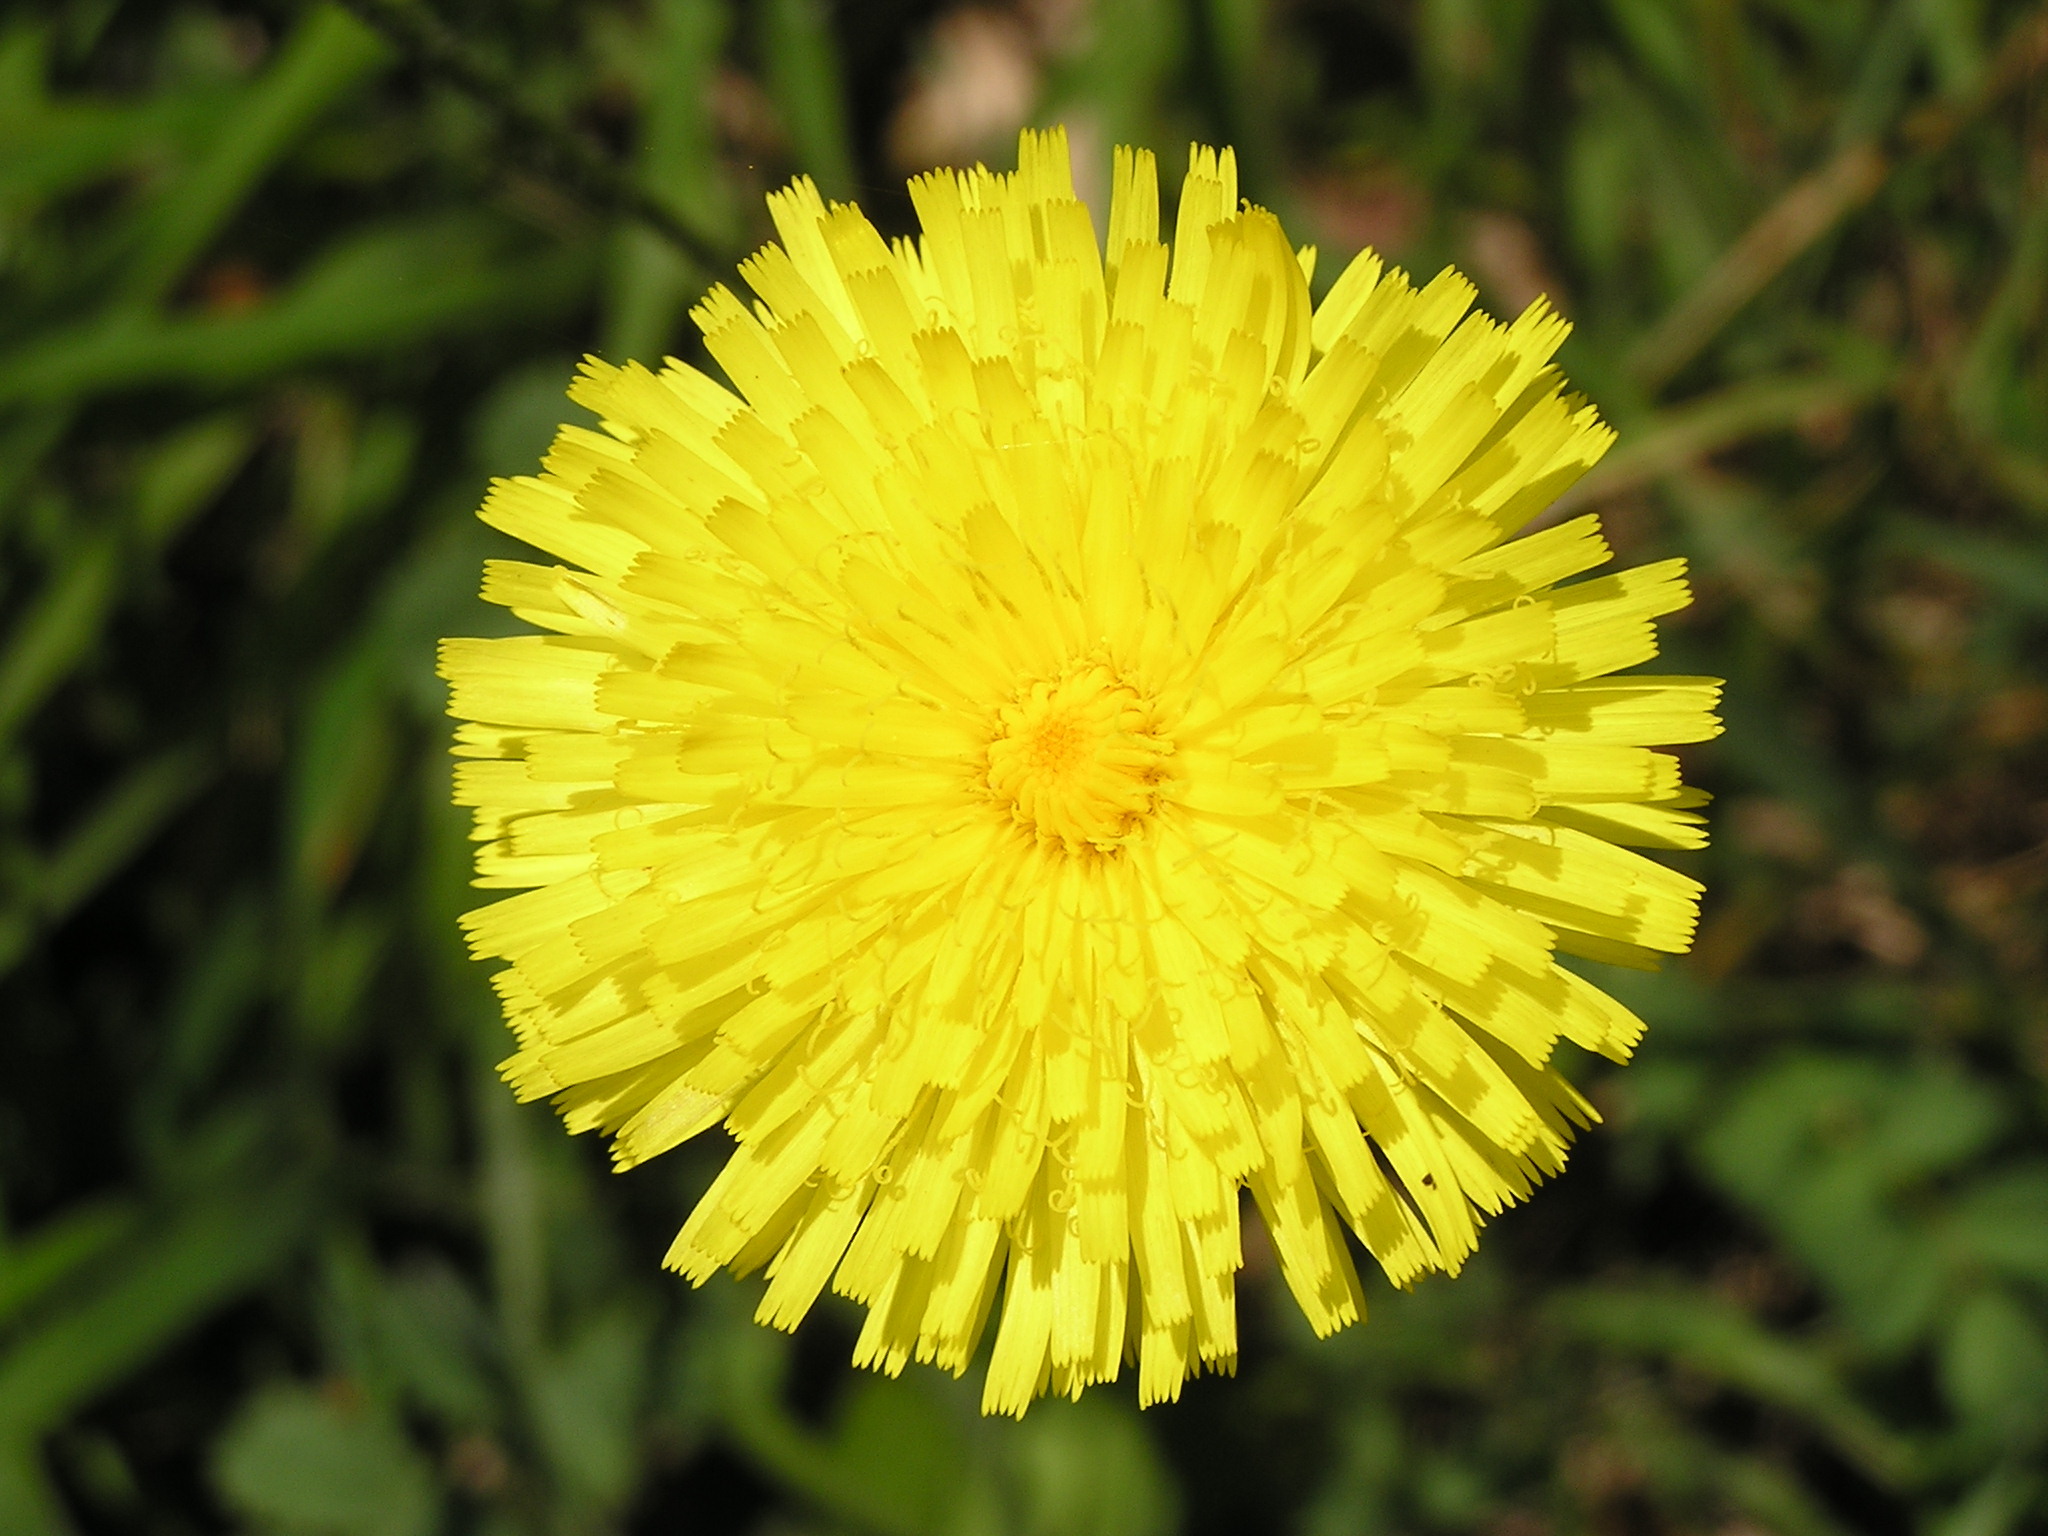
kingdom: Plantae
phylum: Tracheophyta
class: Magnoliopsida
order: Asterales
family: Asteraceae
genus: Taraxacum
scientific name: Taraxacum officinale
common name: Common dandelion
